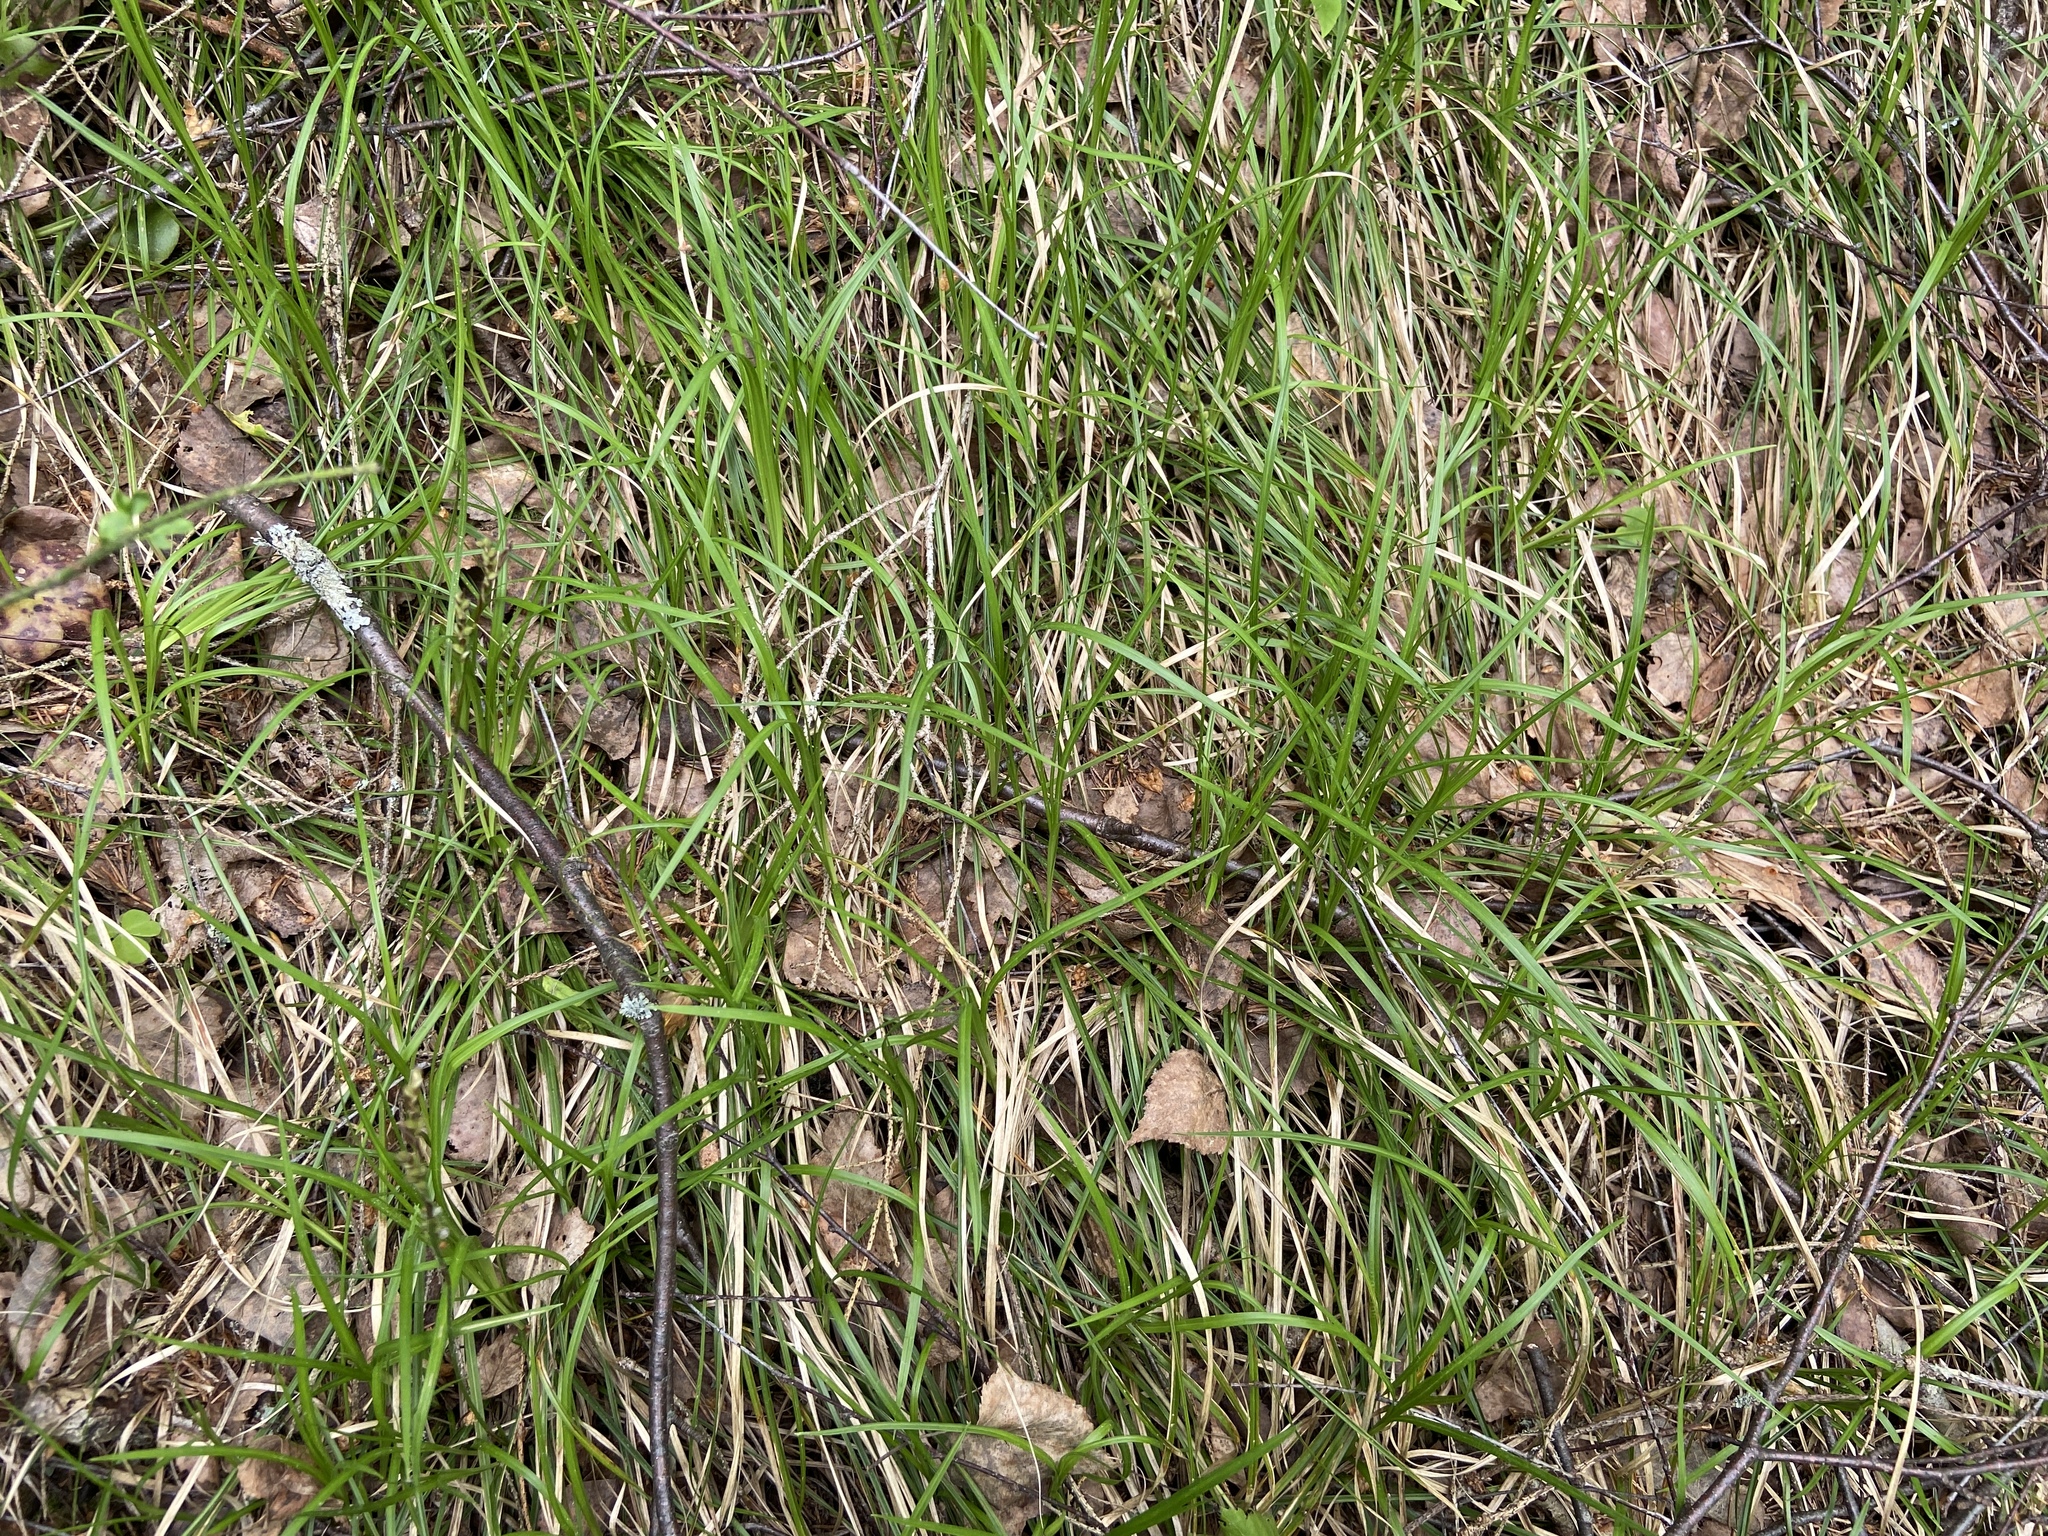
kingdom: Plantae
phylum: Tracheophyta
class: Liliopsida
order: Poales
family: Cyperaceae
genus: Carex
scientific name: Carex rhizina
